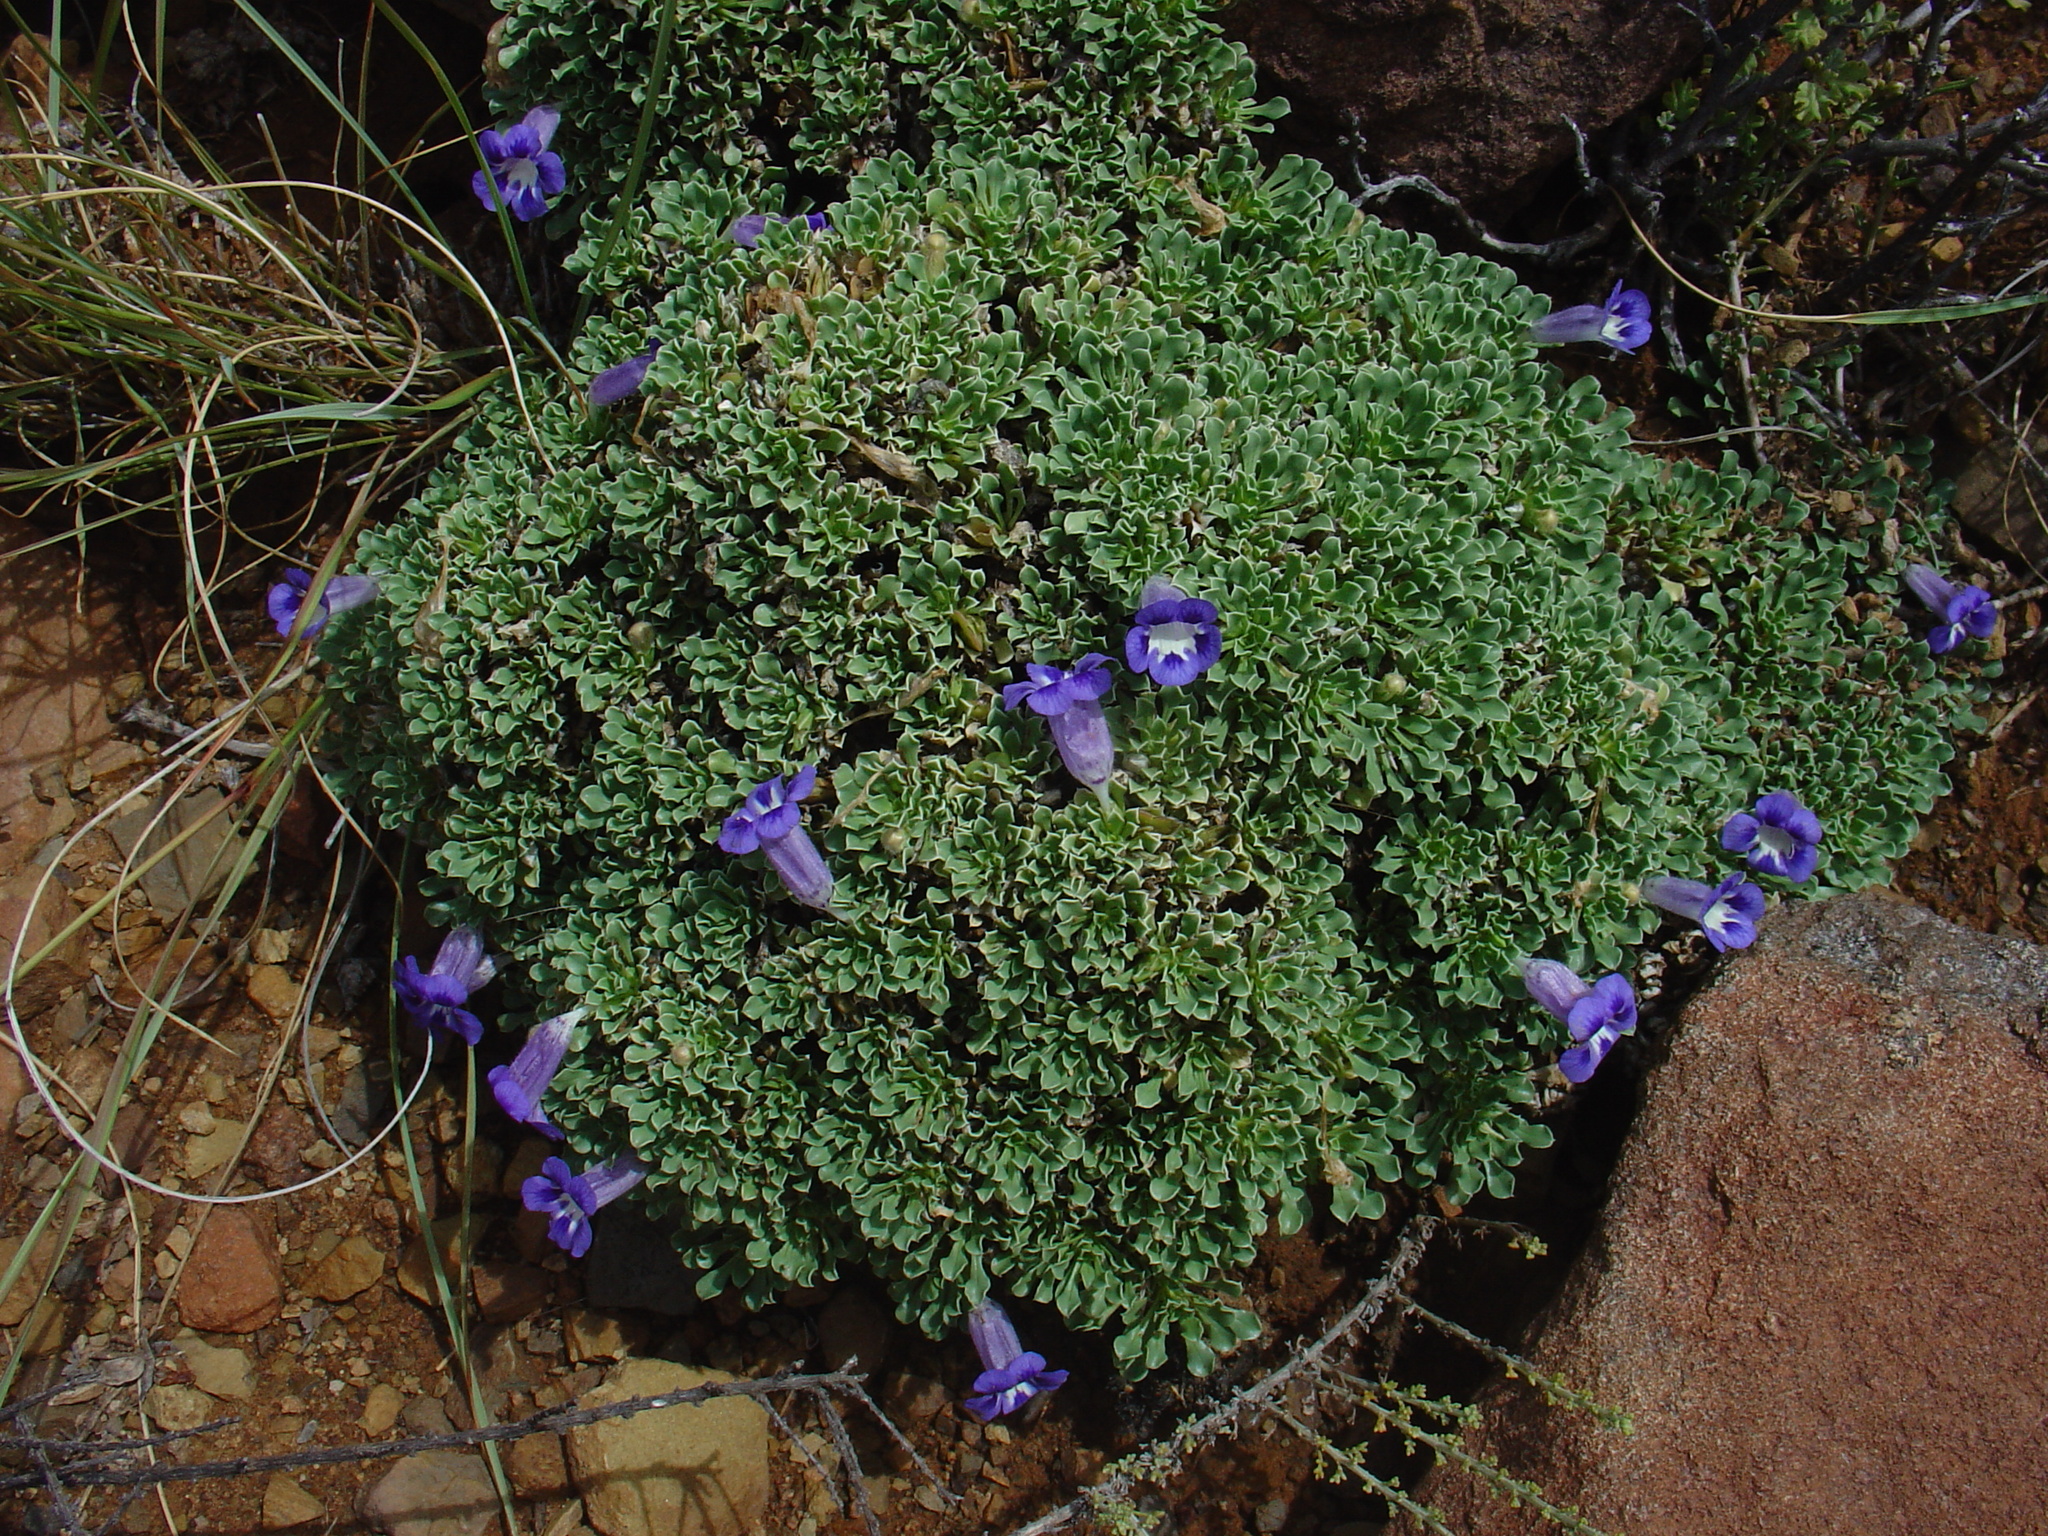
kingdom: Plantae
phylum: Tracheophyta
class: Magnoliopsida
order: Lamiales
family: Scrophulariaceae
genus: Aptosimum
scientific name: Aptosimum indivisum
